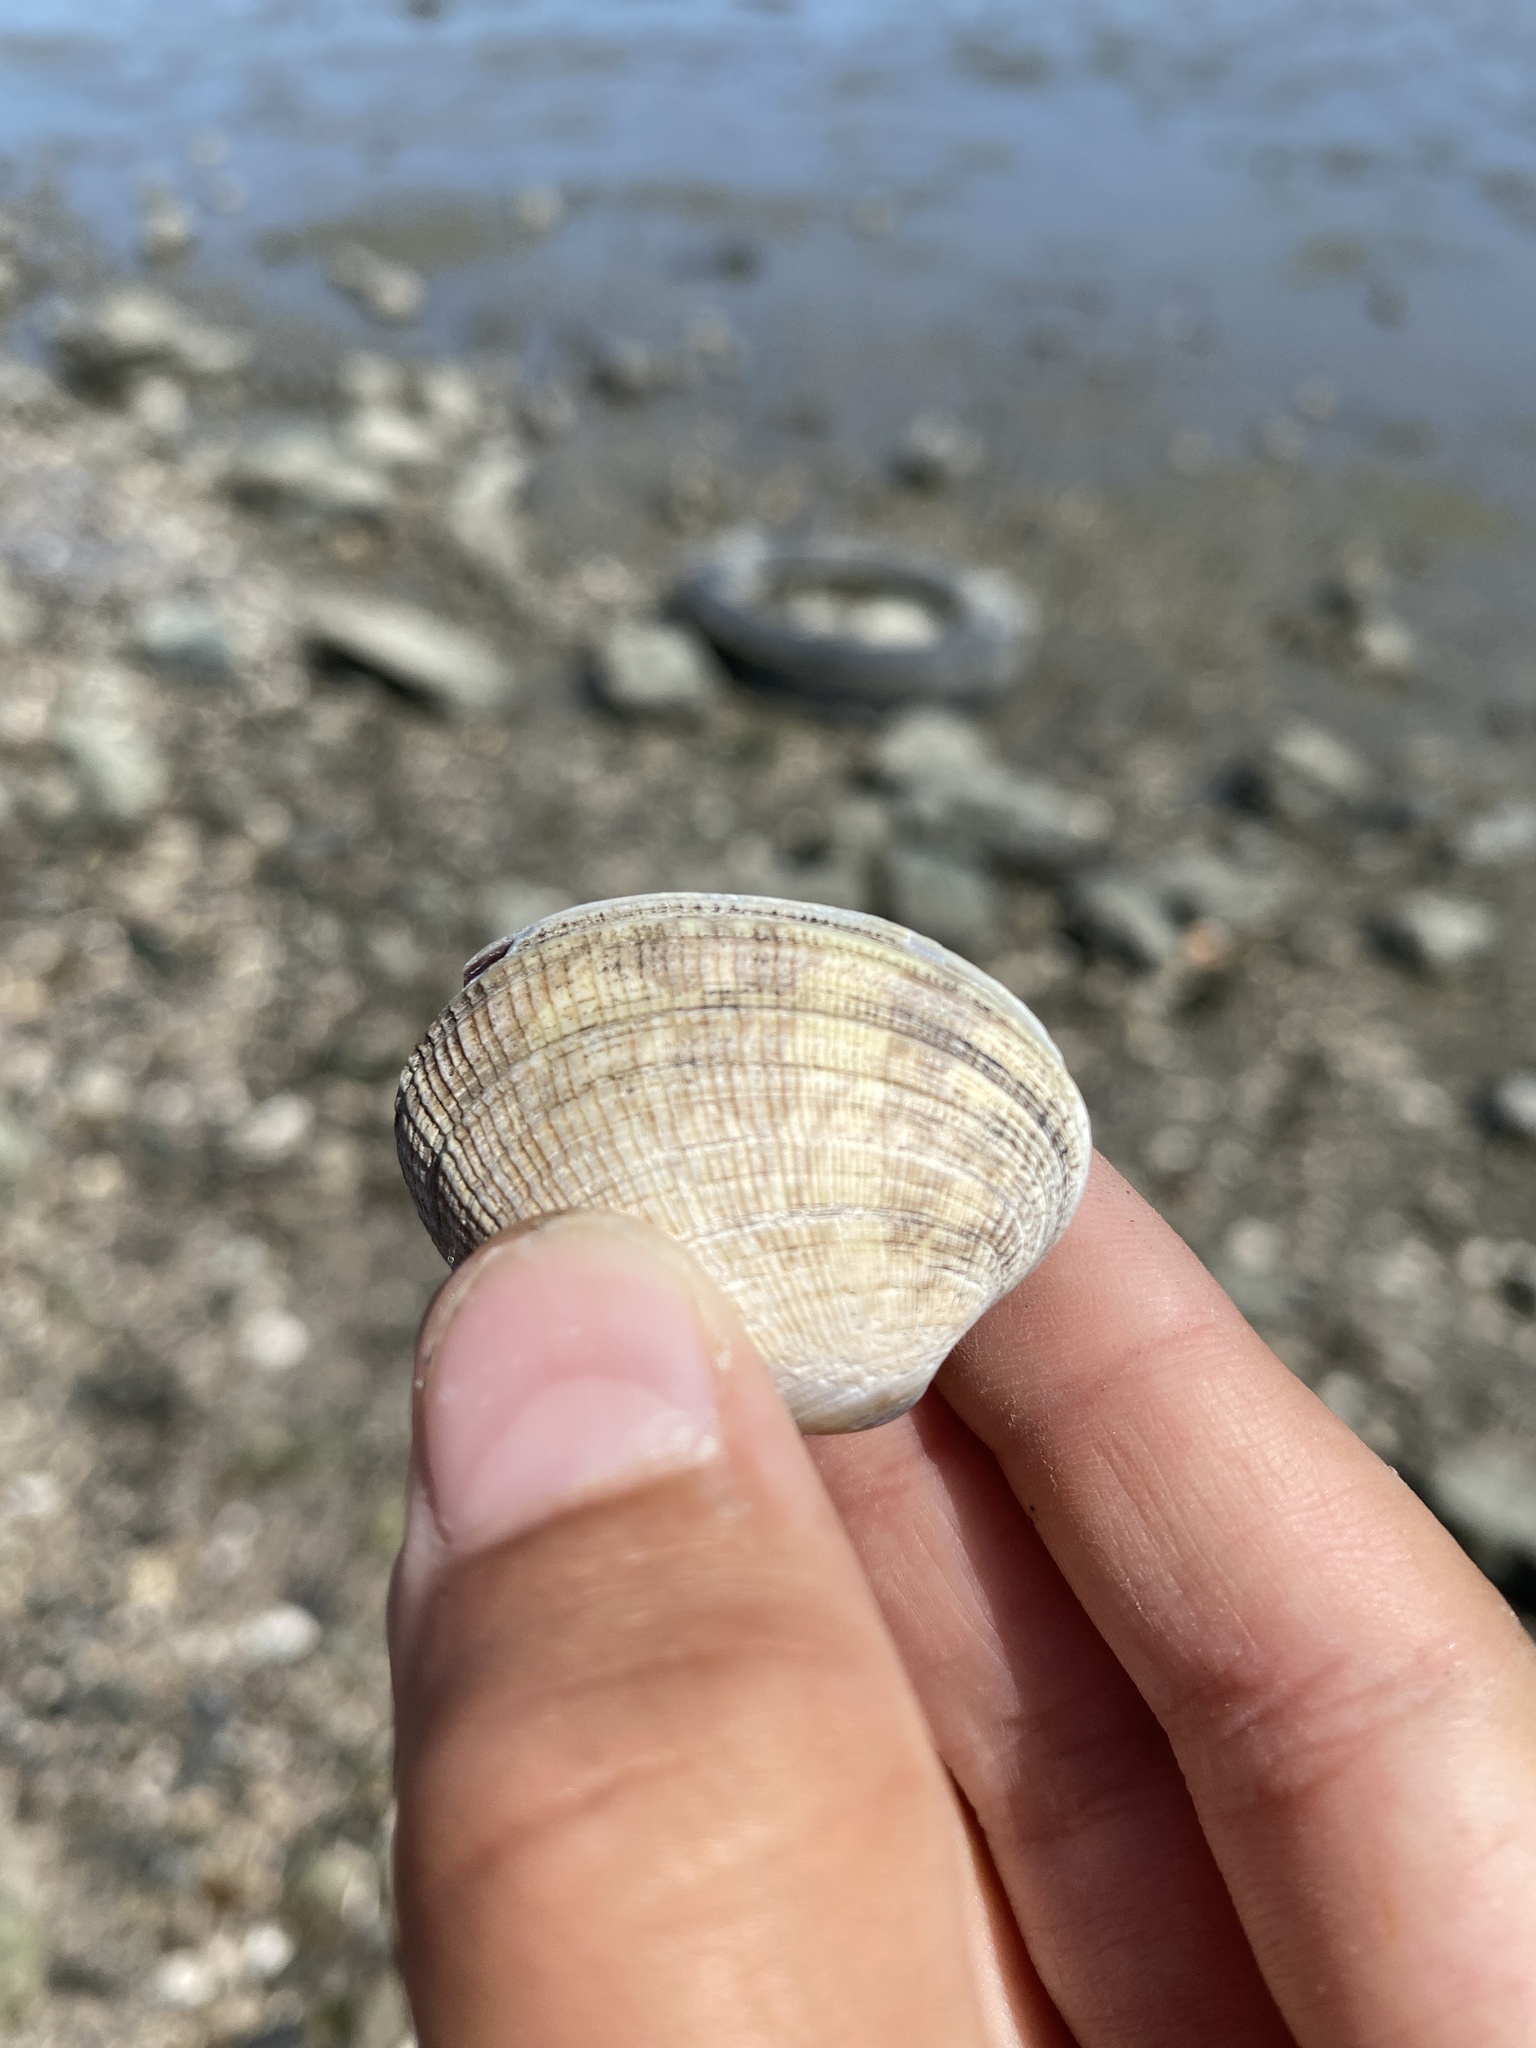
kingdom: Animalia
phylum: Mollusca
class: Bivalvia
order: Venerida
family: Veneridae
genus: Ruditapes
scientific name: Ruditapes philippinarum
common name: Manila clam
